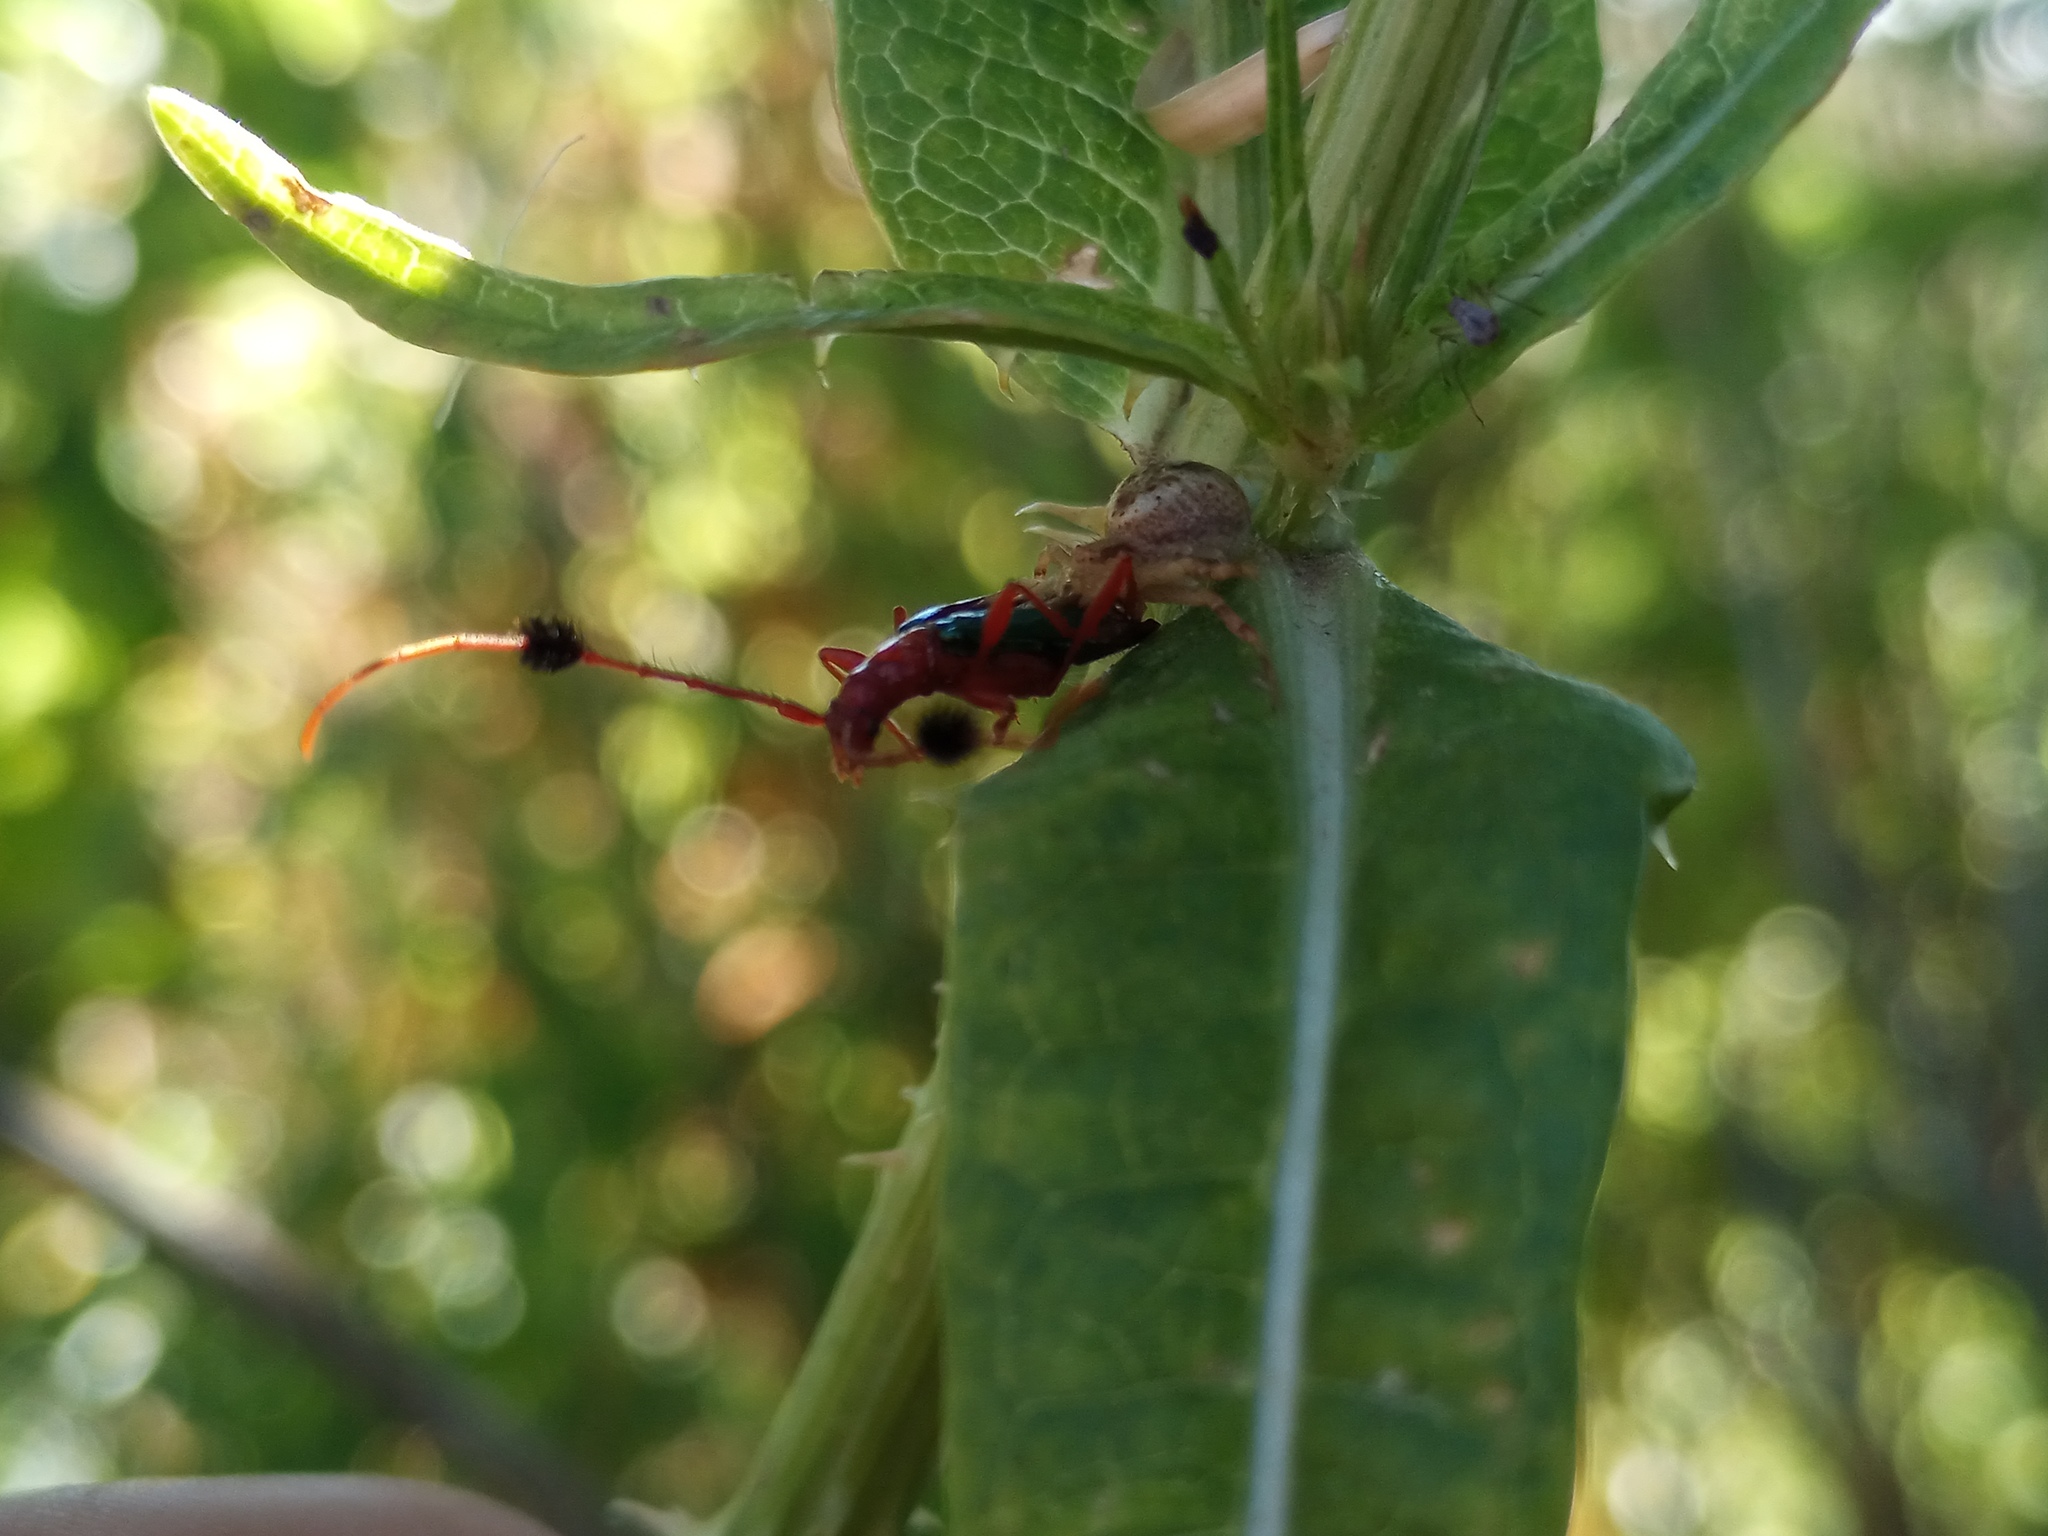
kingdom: Animalia
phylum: Arthropoda
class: Arachnida
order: Araneae
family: Thomisidae
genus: Misumenops
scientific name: Misumenops
